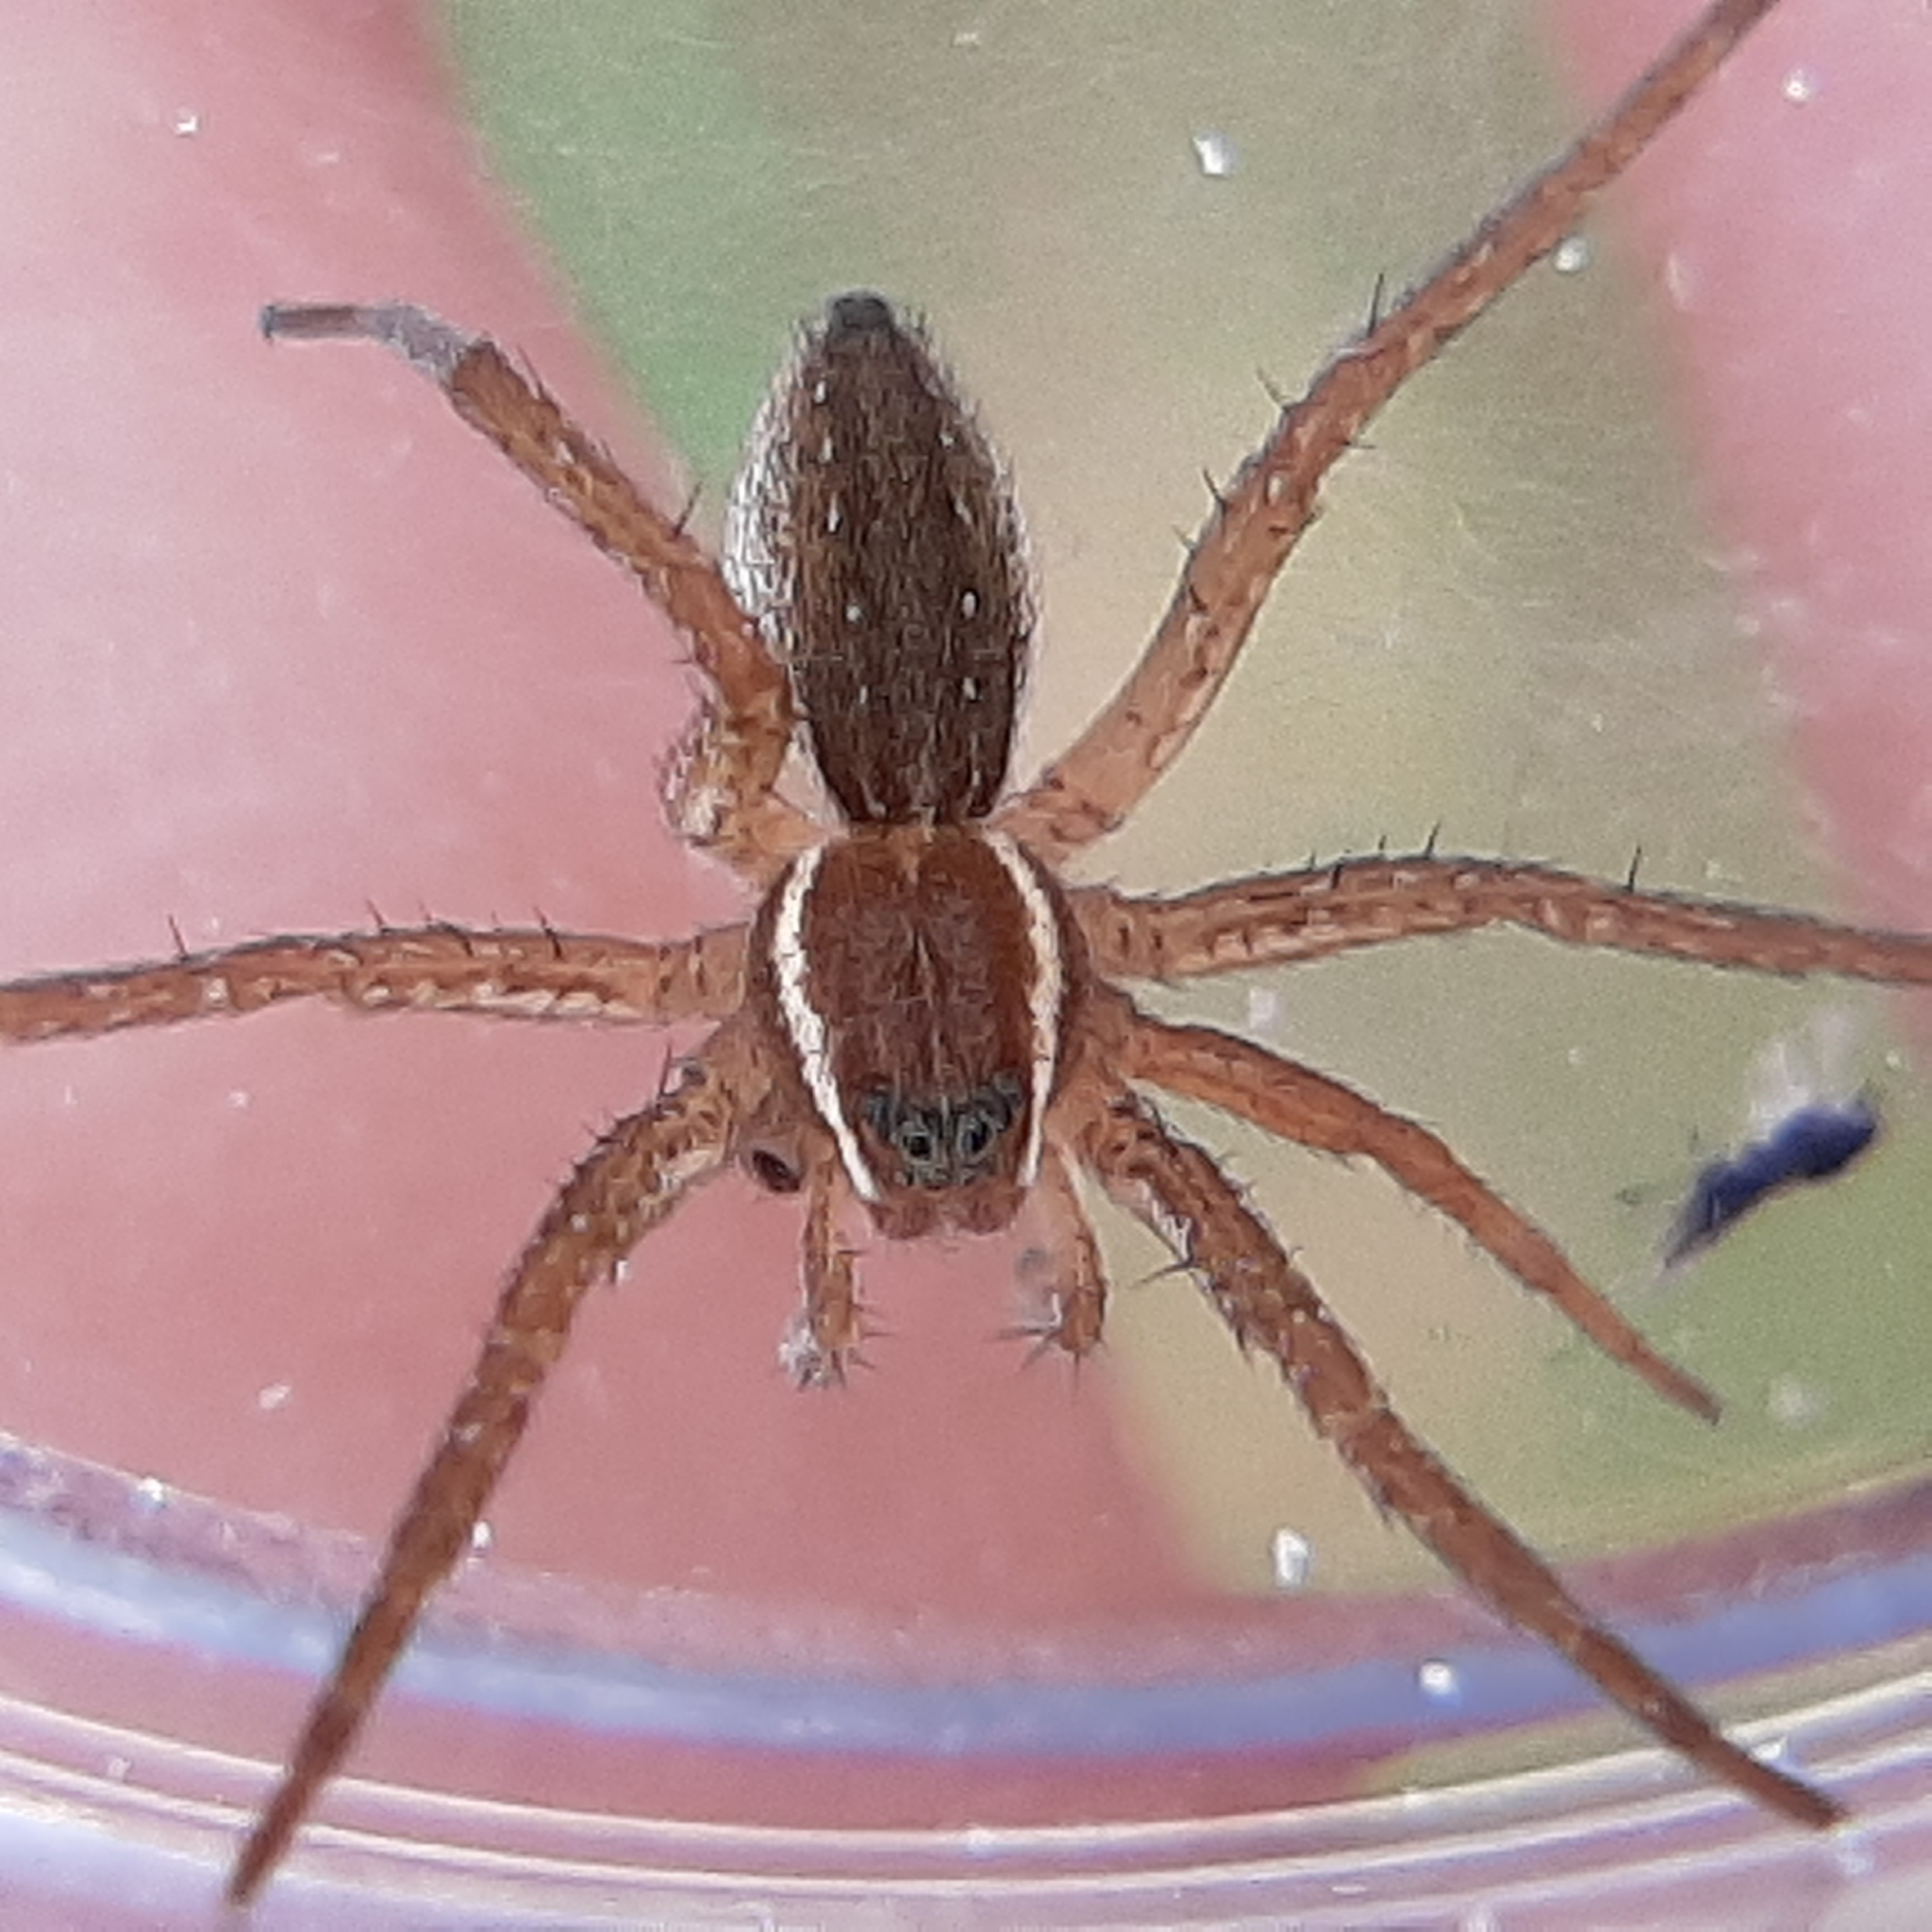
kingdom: Animalia
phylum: Arthropoda
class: Arachnida
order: Araneae
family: Pisauridae
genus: Dolomedes
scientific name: Dolomedes triton
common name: Six-spotted fishing spider
